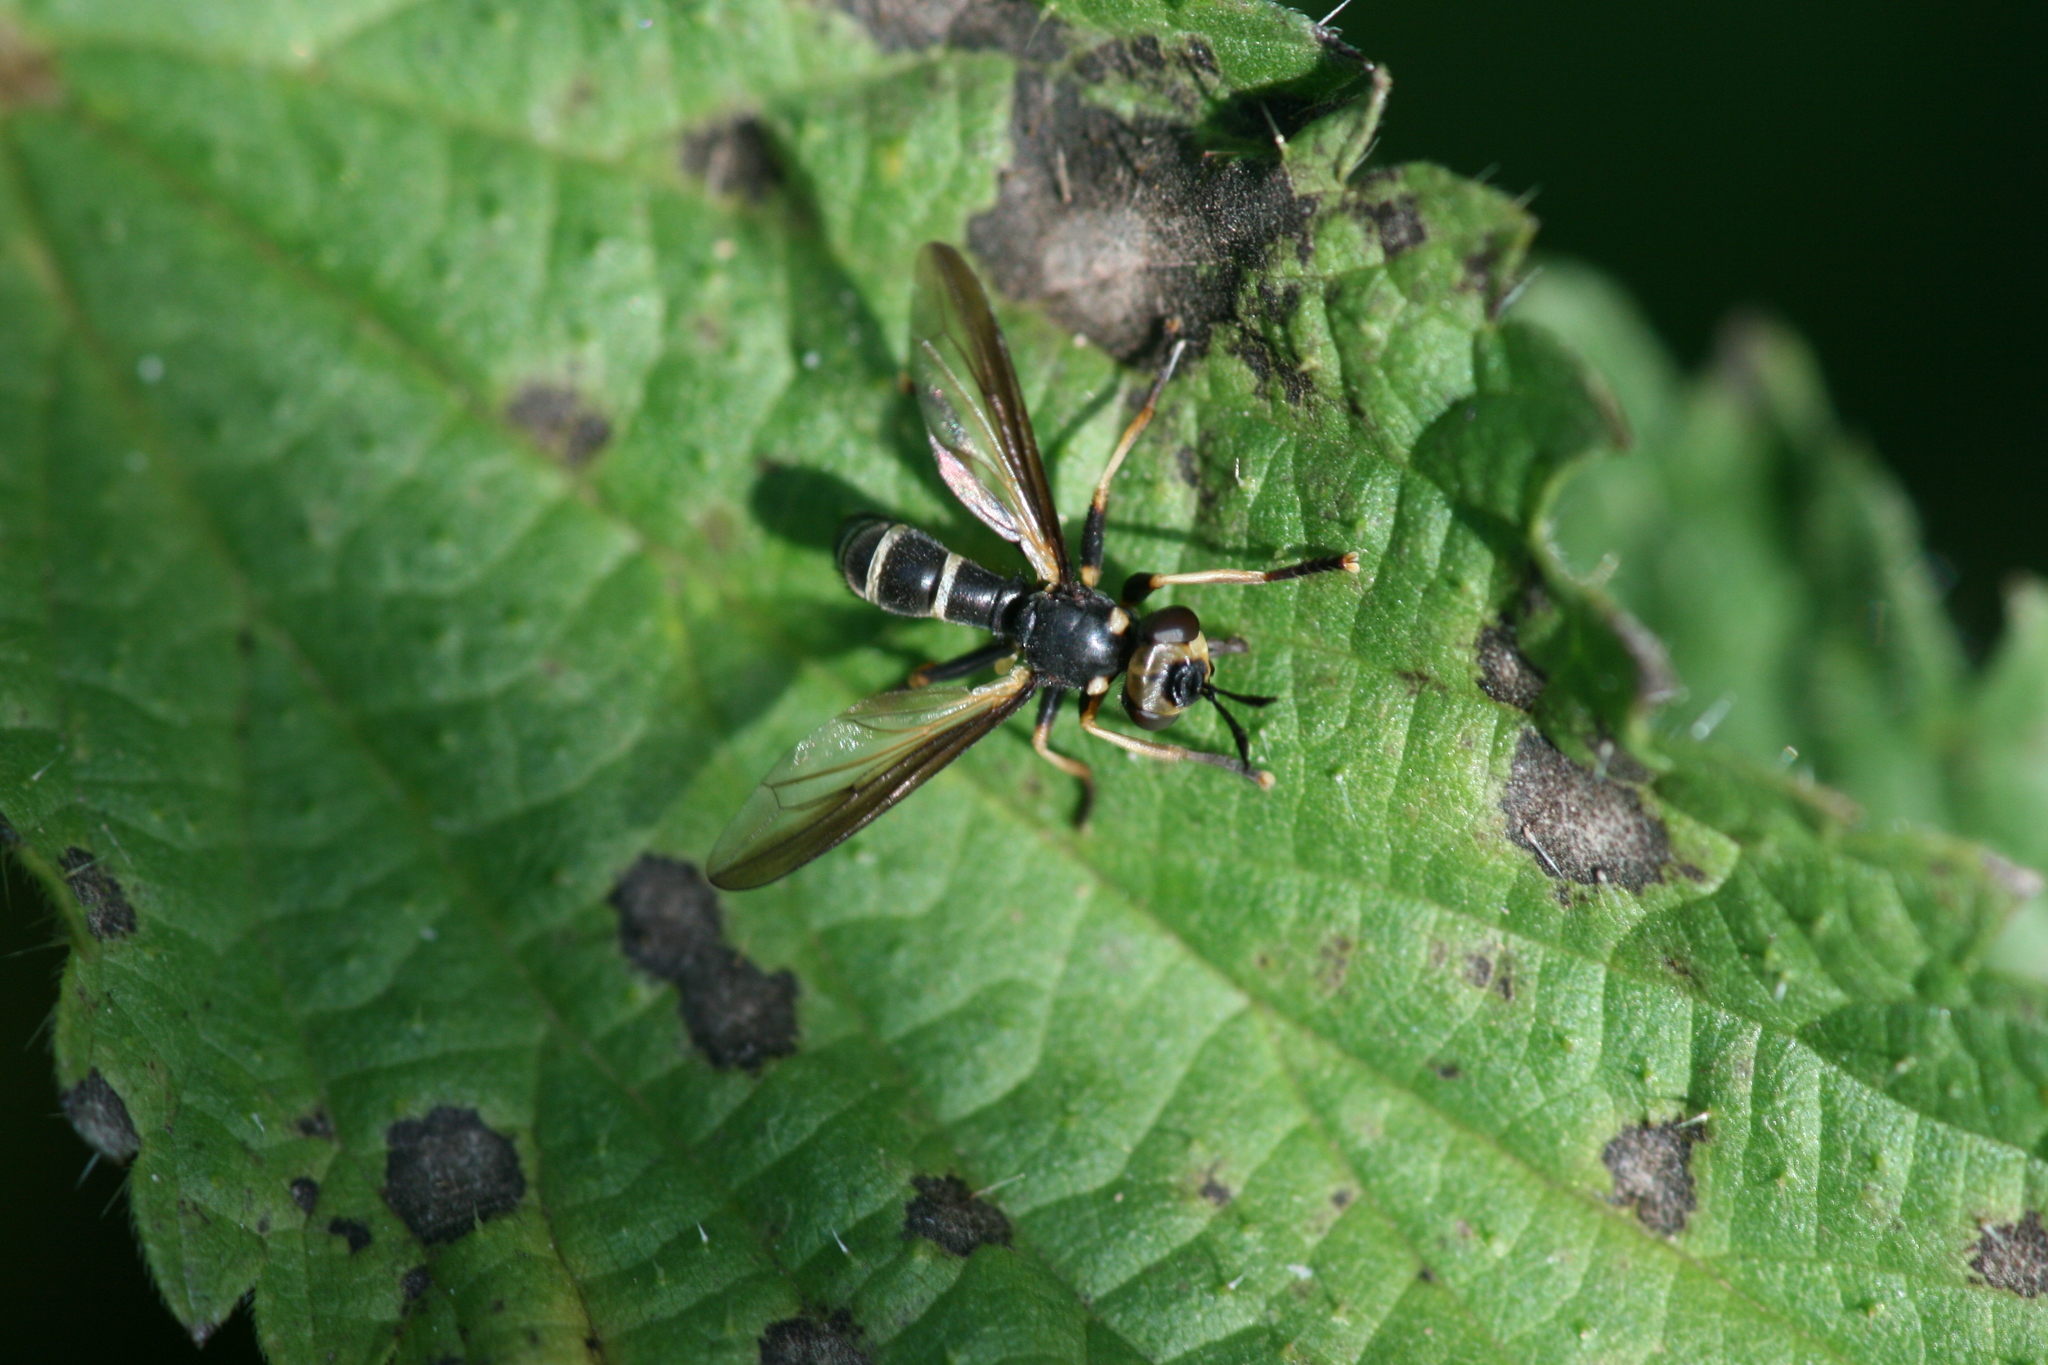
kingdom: Animalia
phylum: Arthropoda
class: Insecta
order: Diptera
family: Conopidae
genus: Leopoldius
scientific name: Leopoldius calceatus
